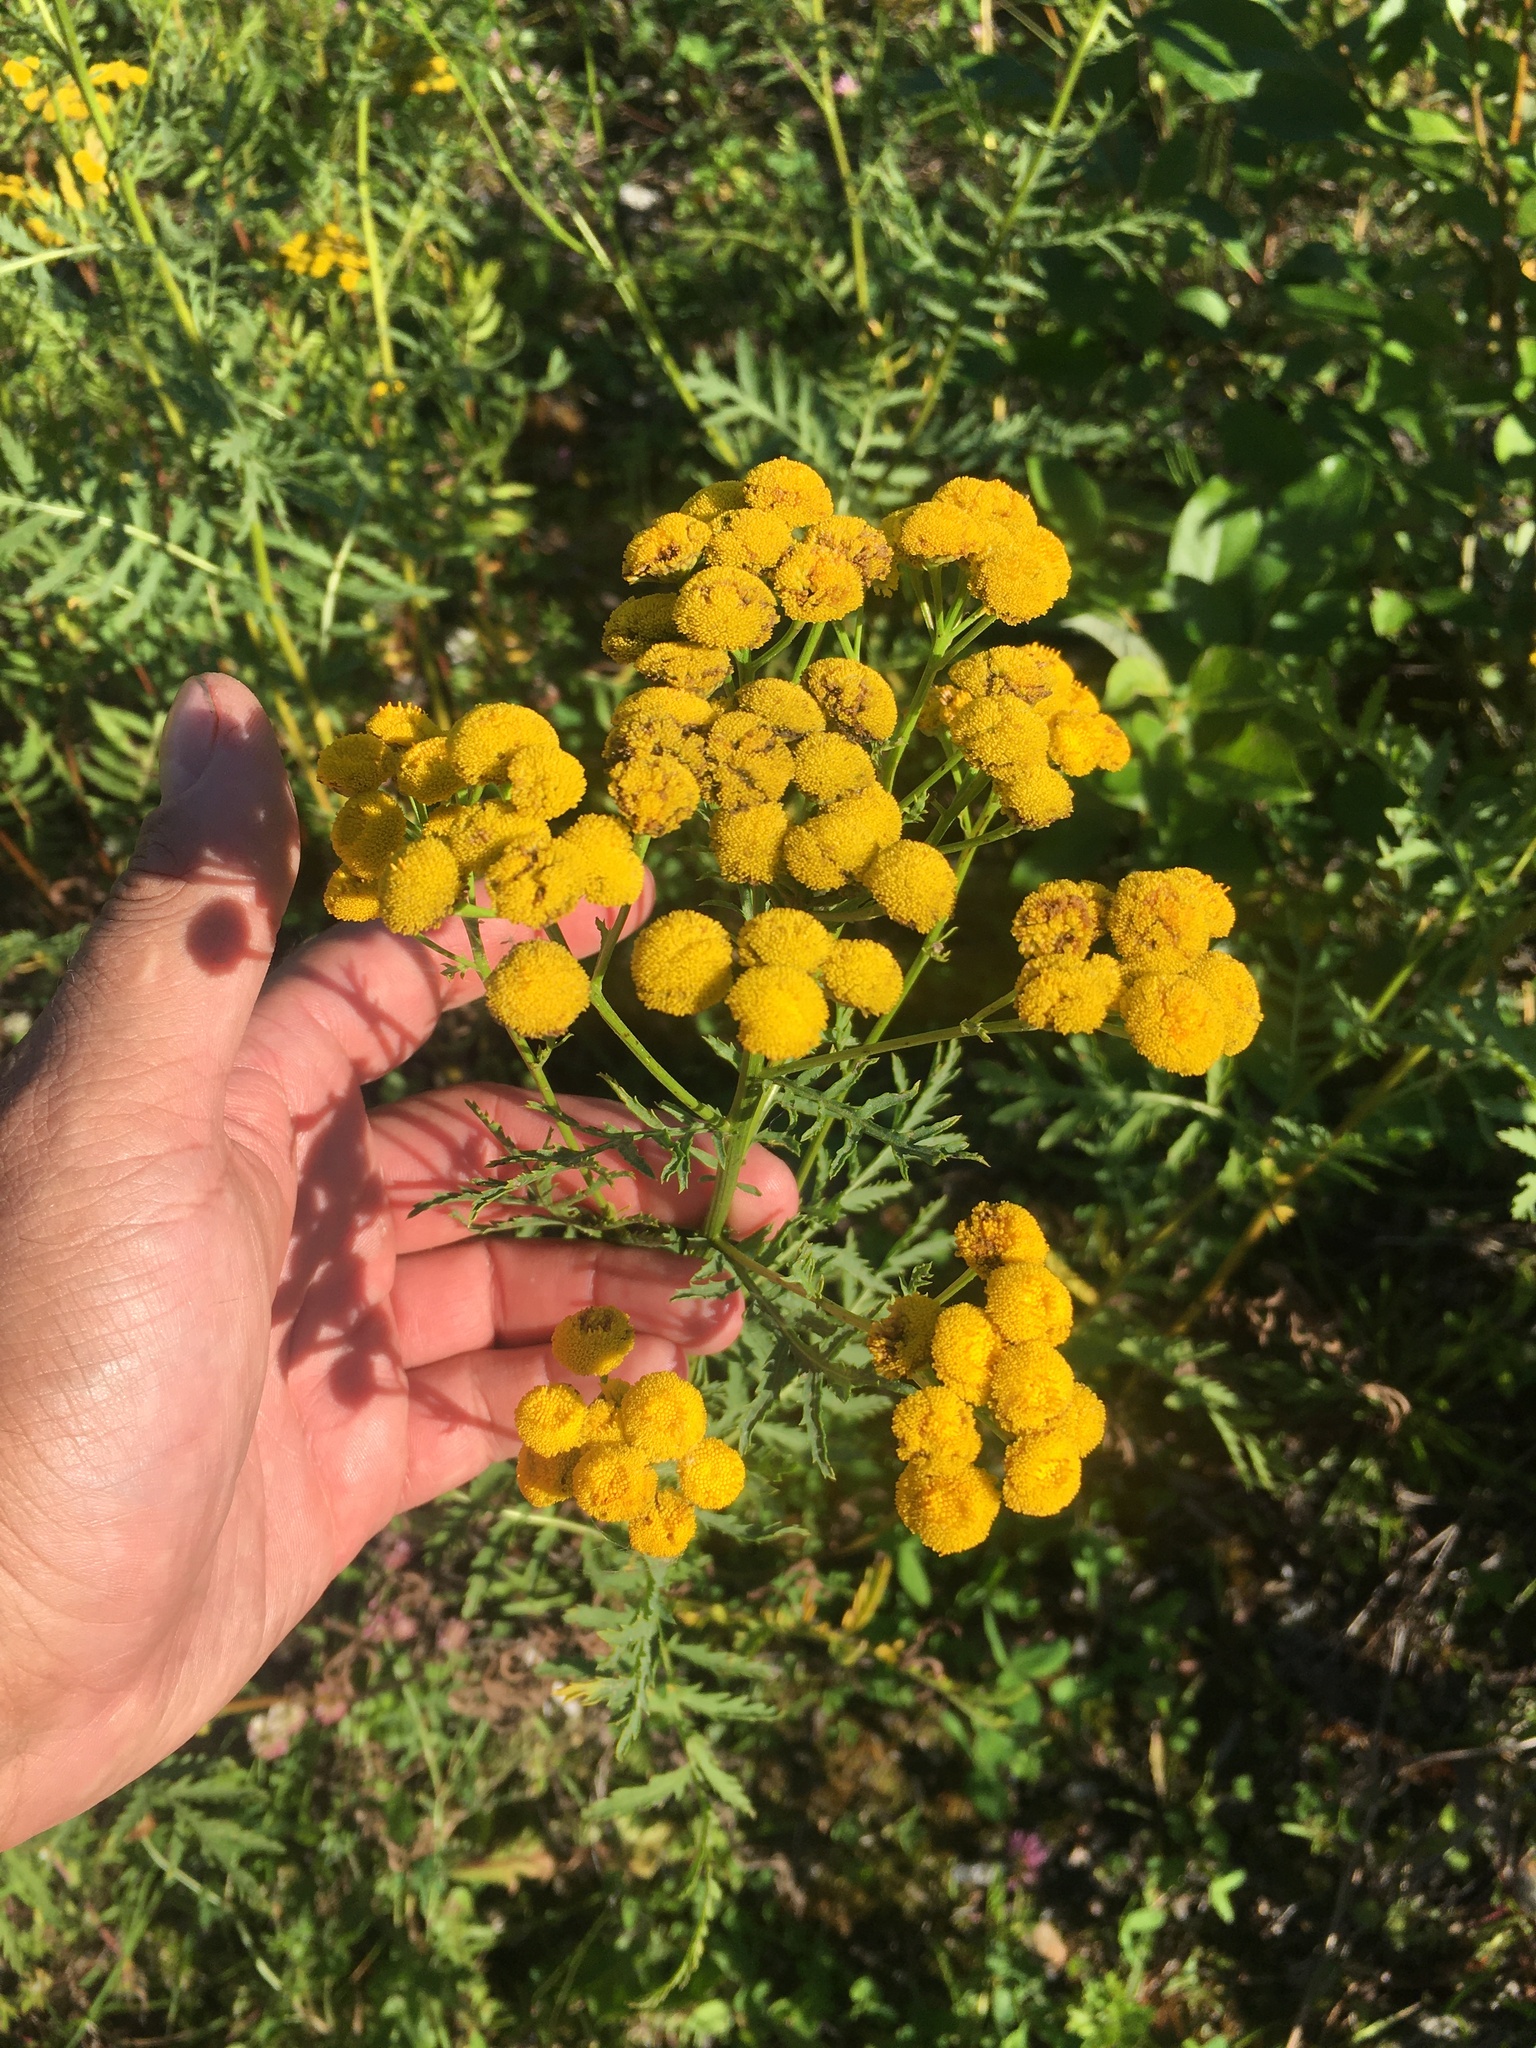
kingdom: Plantae
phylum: Tracheophyta
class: Magnoliopsida
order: Asterales
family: Asteraceae
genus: Tanacetum
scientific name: Tanacetum vulgare
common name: Common tansy
